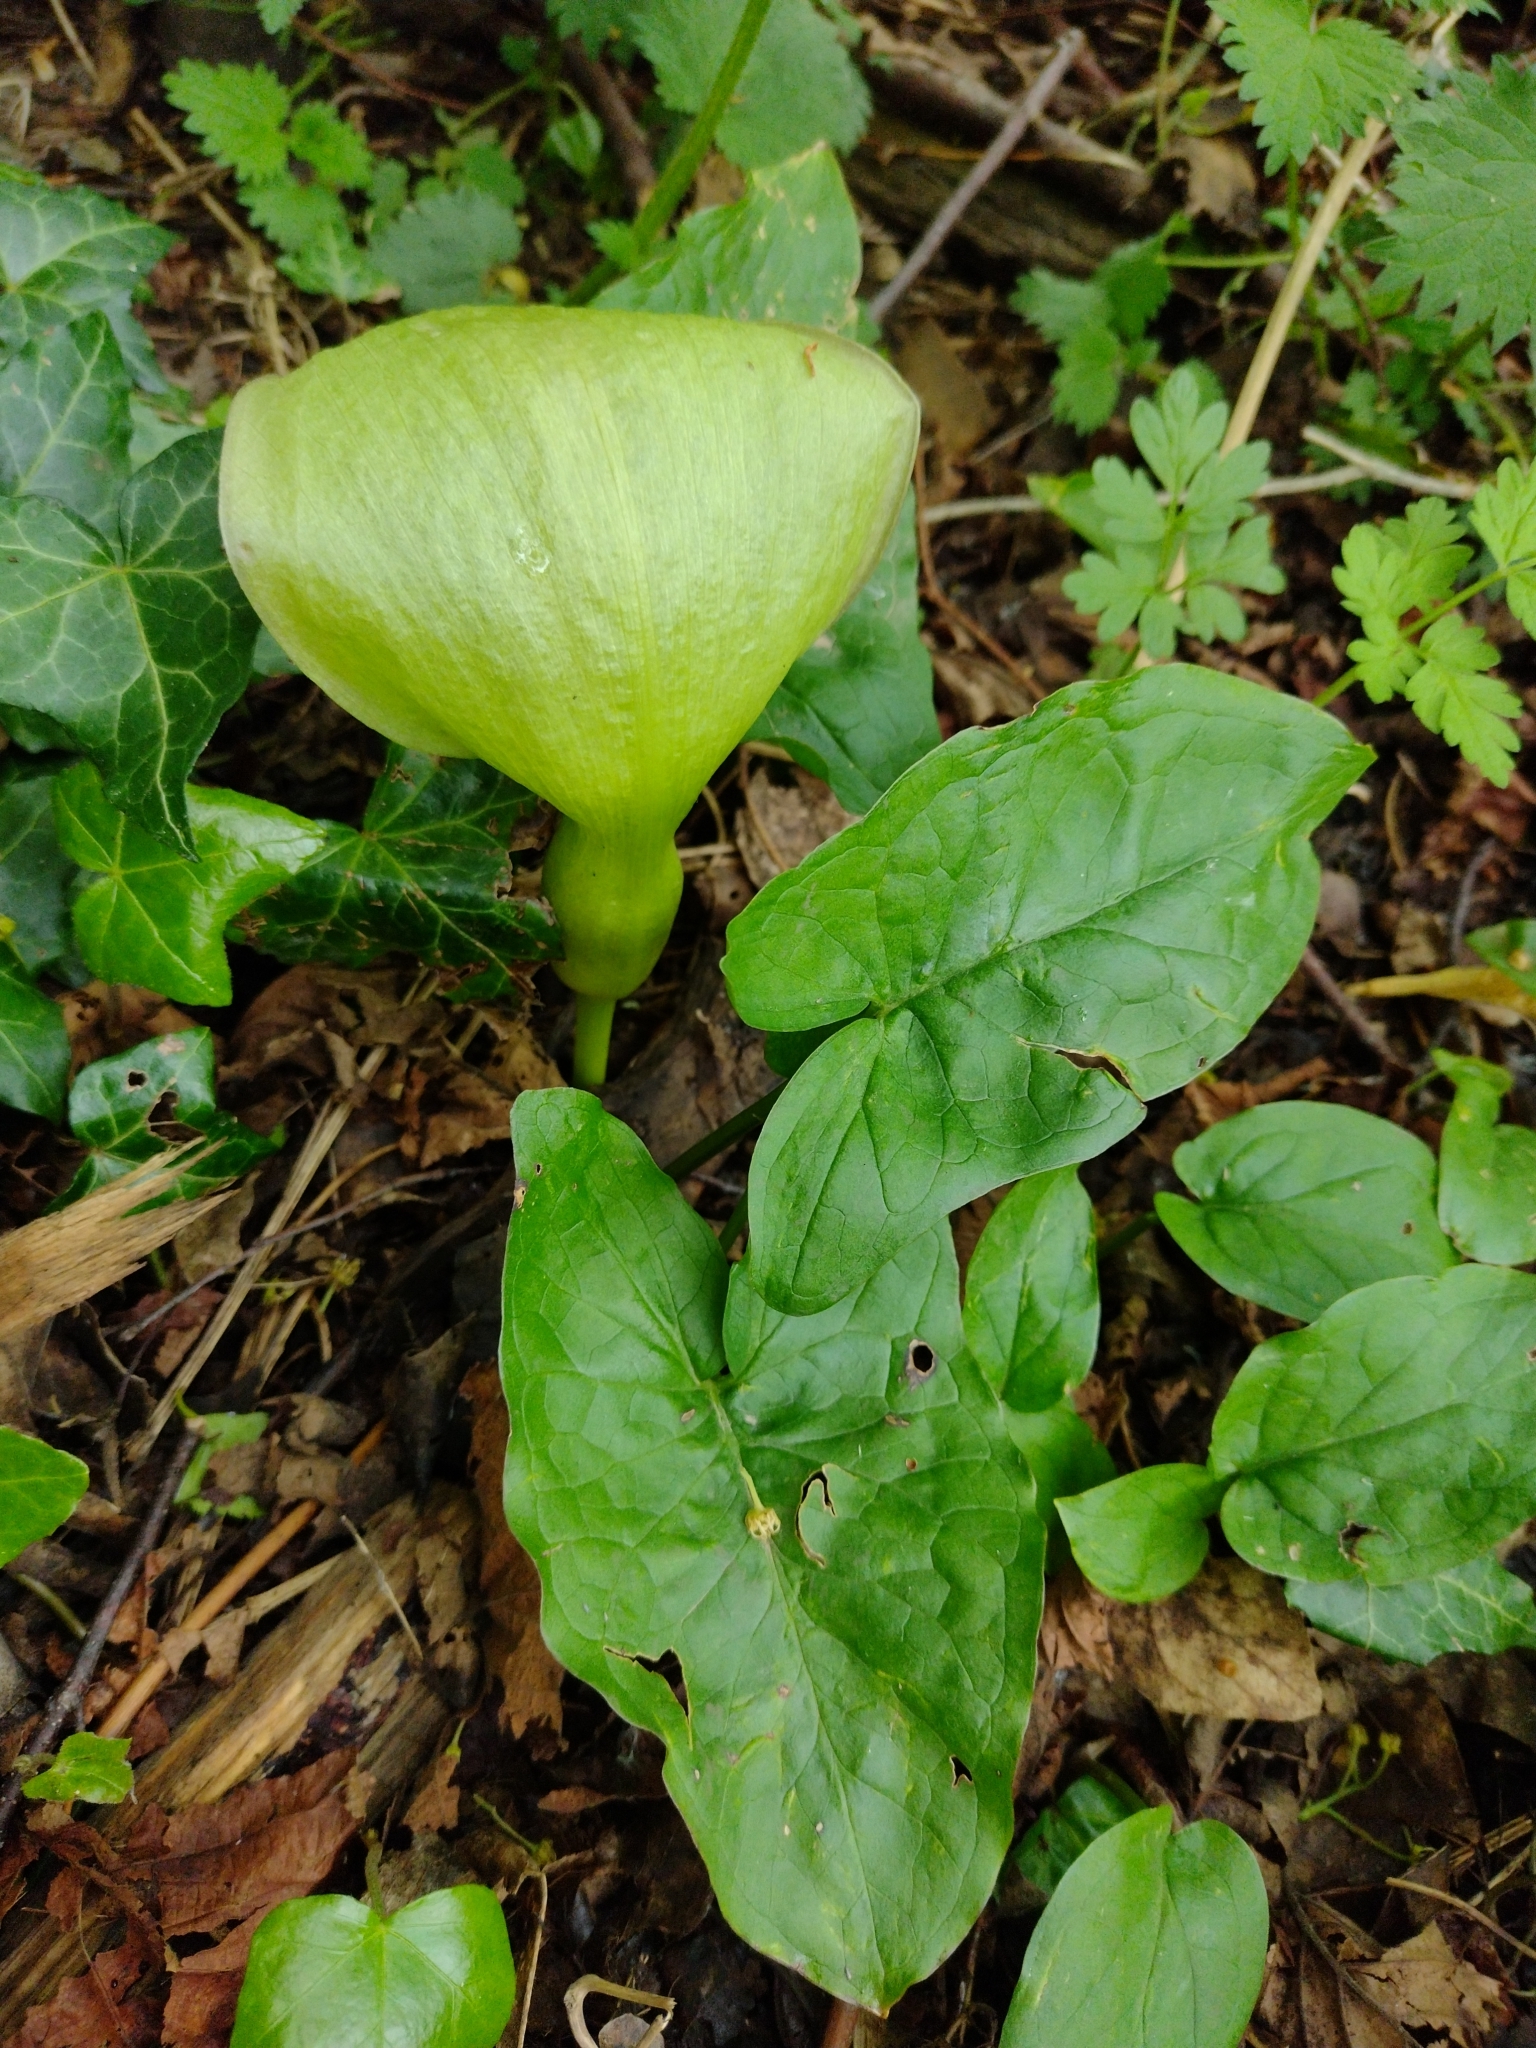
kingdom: Plantae
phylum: Tracheophyta
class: Liliopsida
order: Alismatales
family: Araceae
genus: Arum
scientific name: Arum maculatum
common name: Lords-and-ladies
